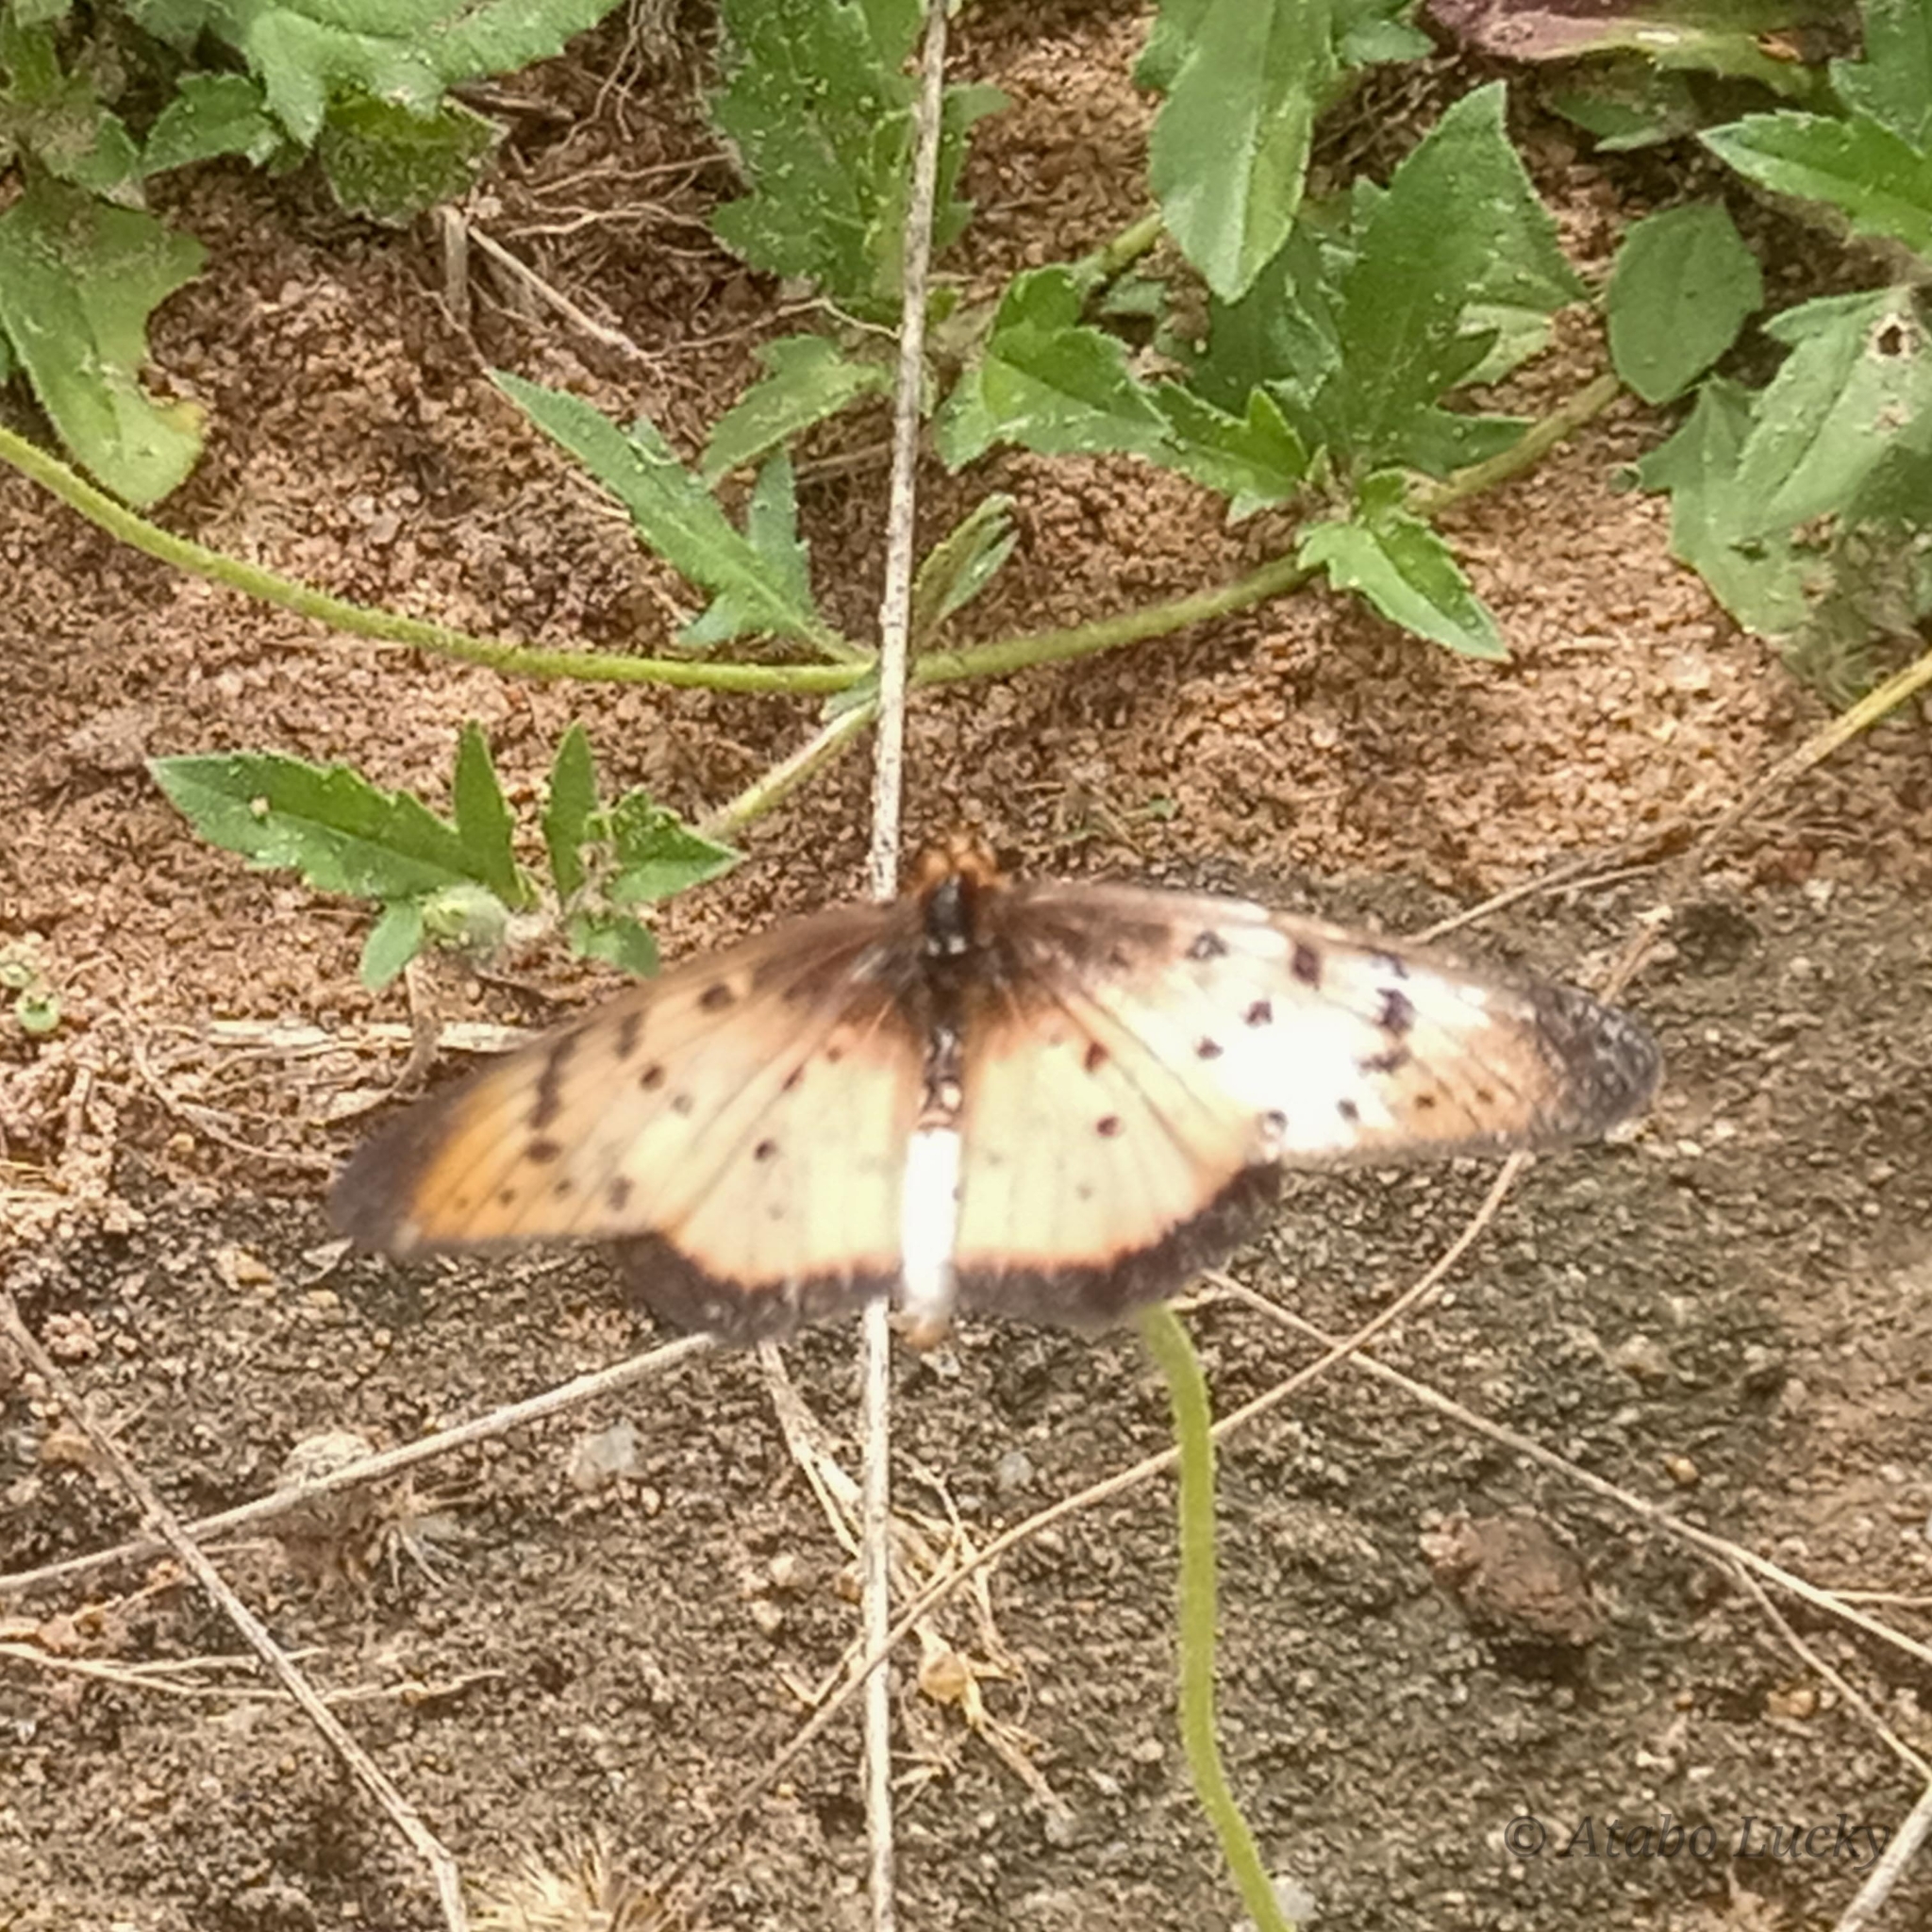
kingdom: Animalia
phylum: Arthropoda
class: Insecta
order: Lepidoptera
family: Nymphalidae
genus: Stephenia
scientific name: Stephenia
